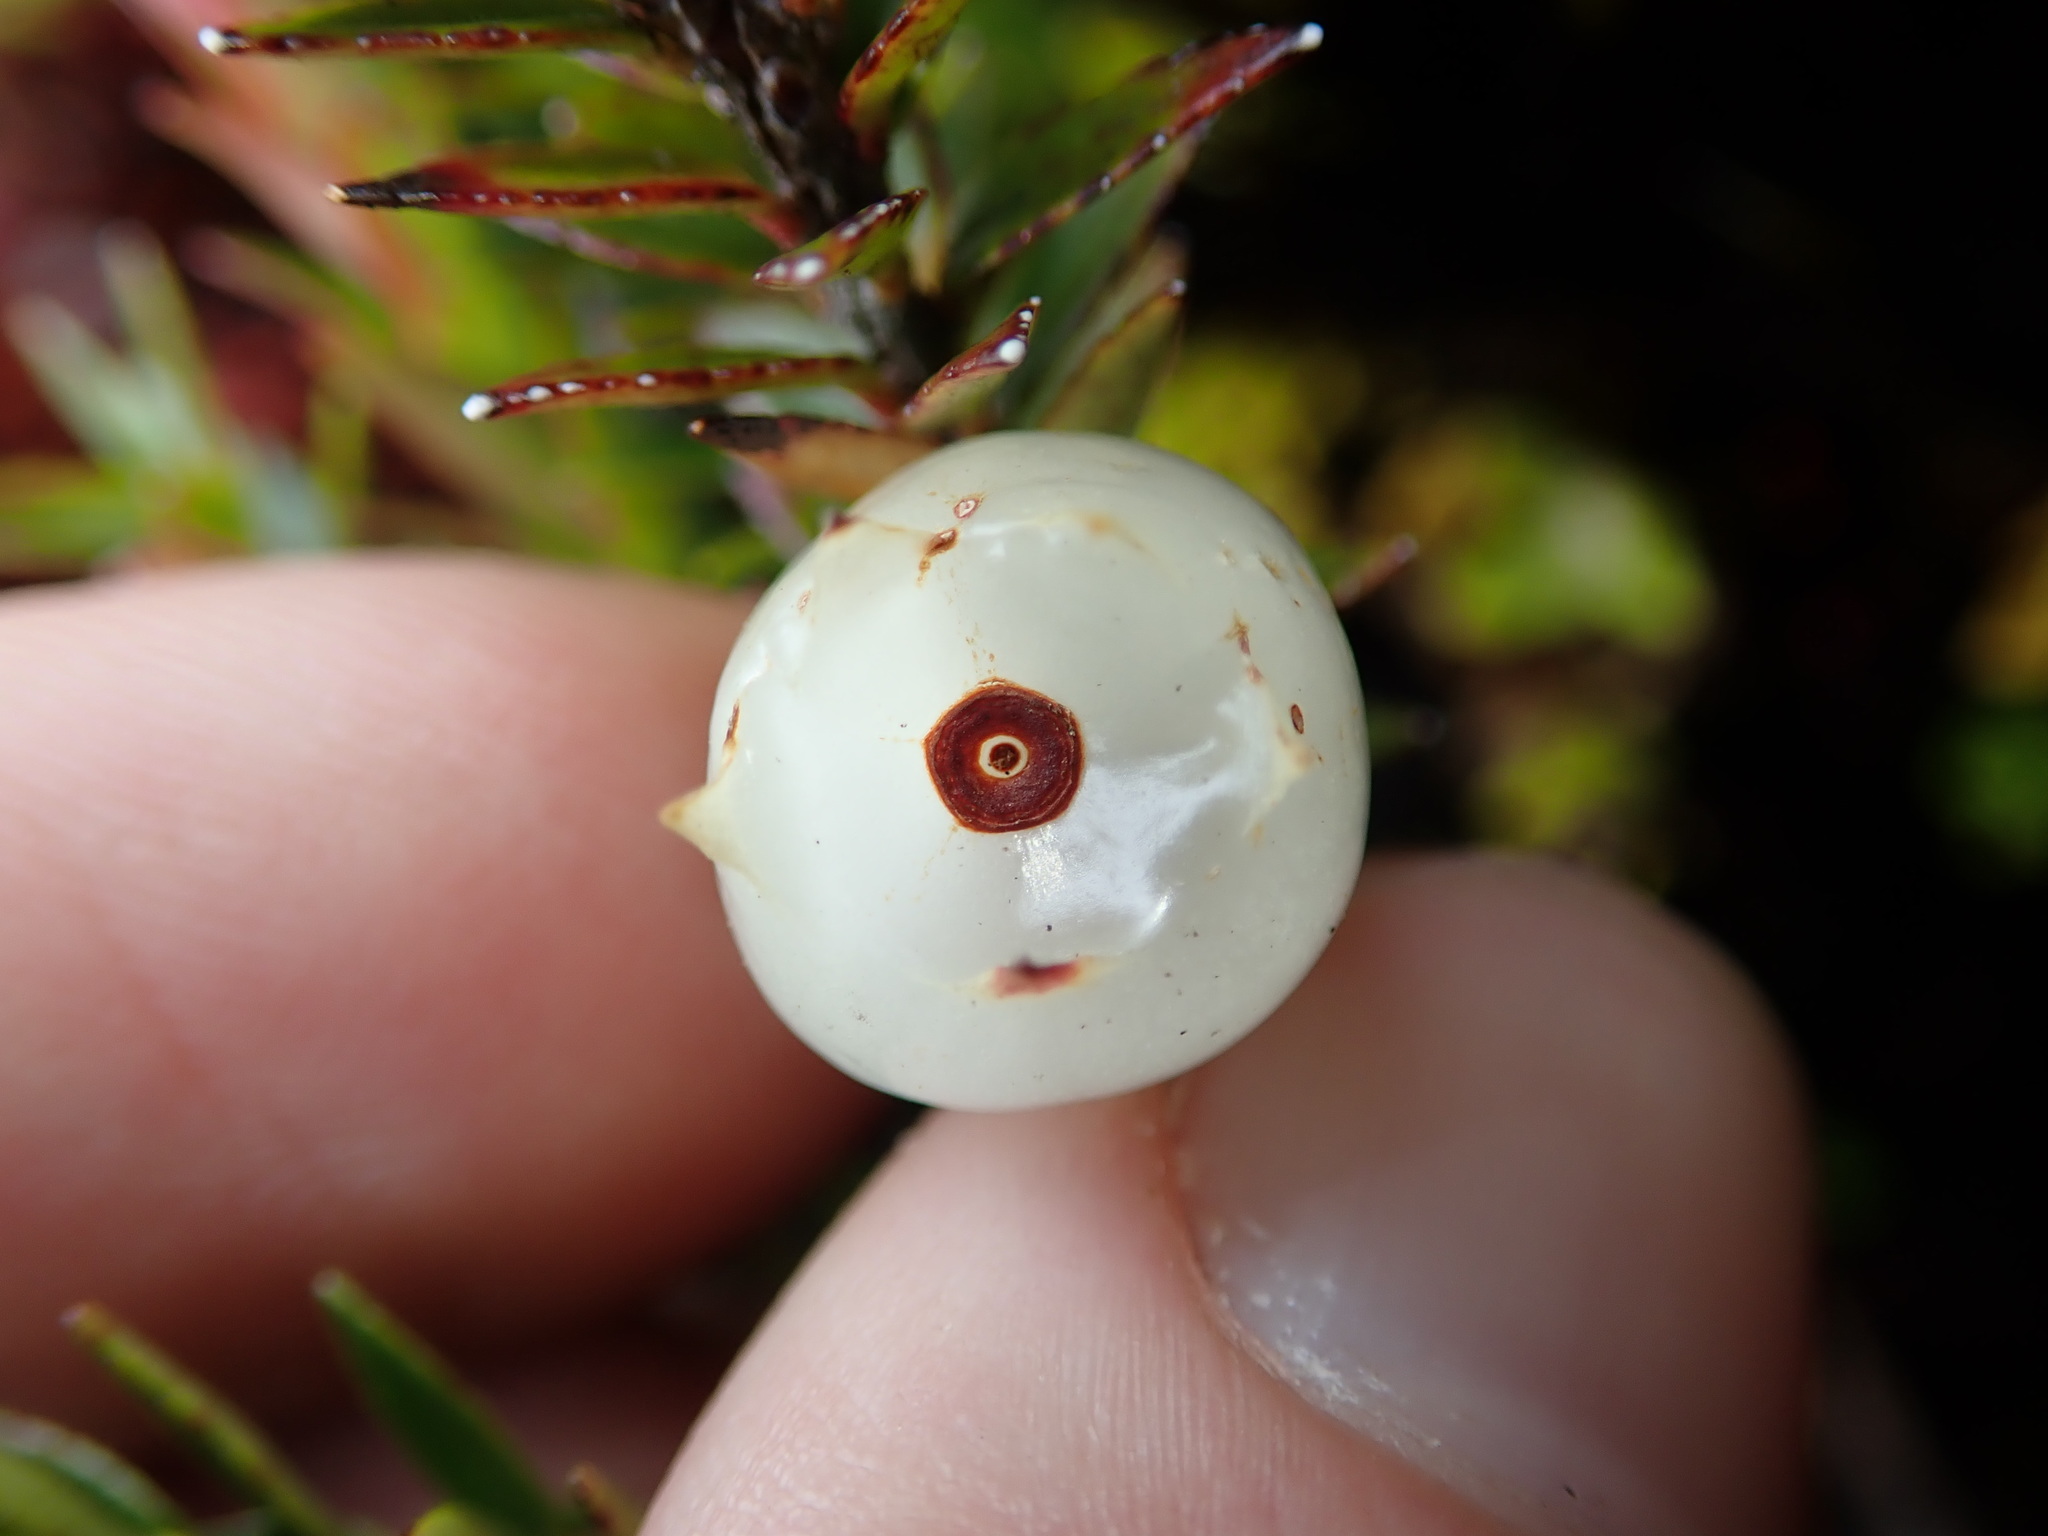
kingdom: Plantae
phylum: Tracheophyta
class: Magnoliopsida
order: Ericales
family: Ericaceae
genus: Disterigma
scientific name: Disterigma empetrifolium
